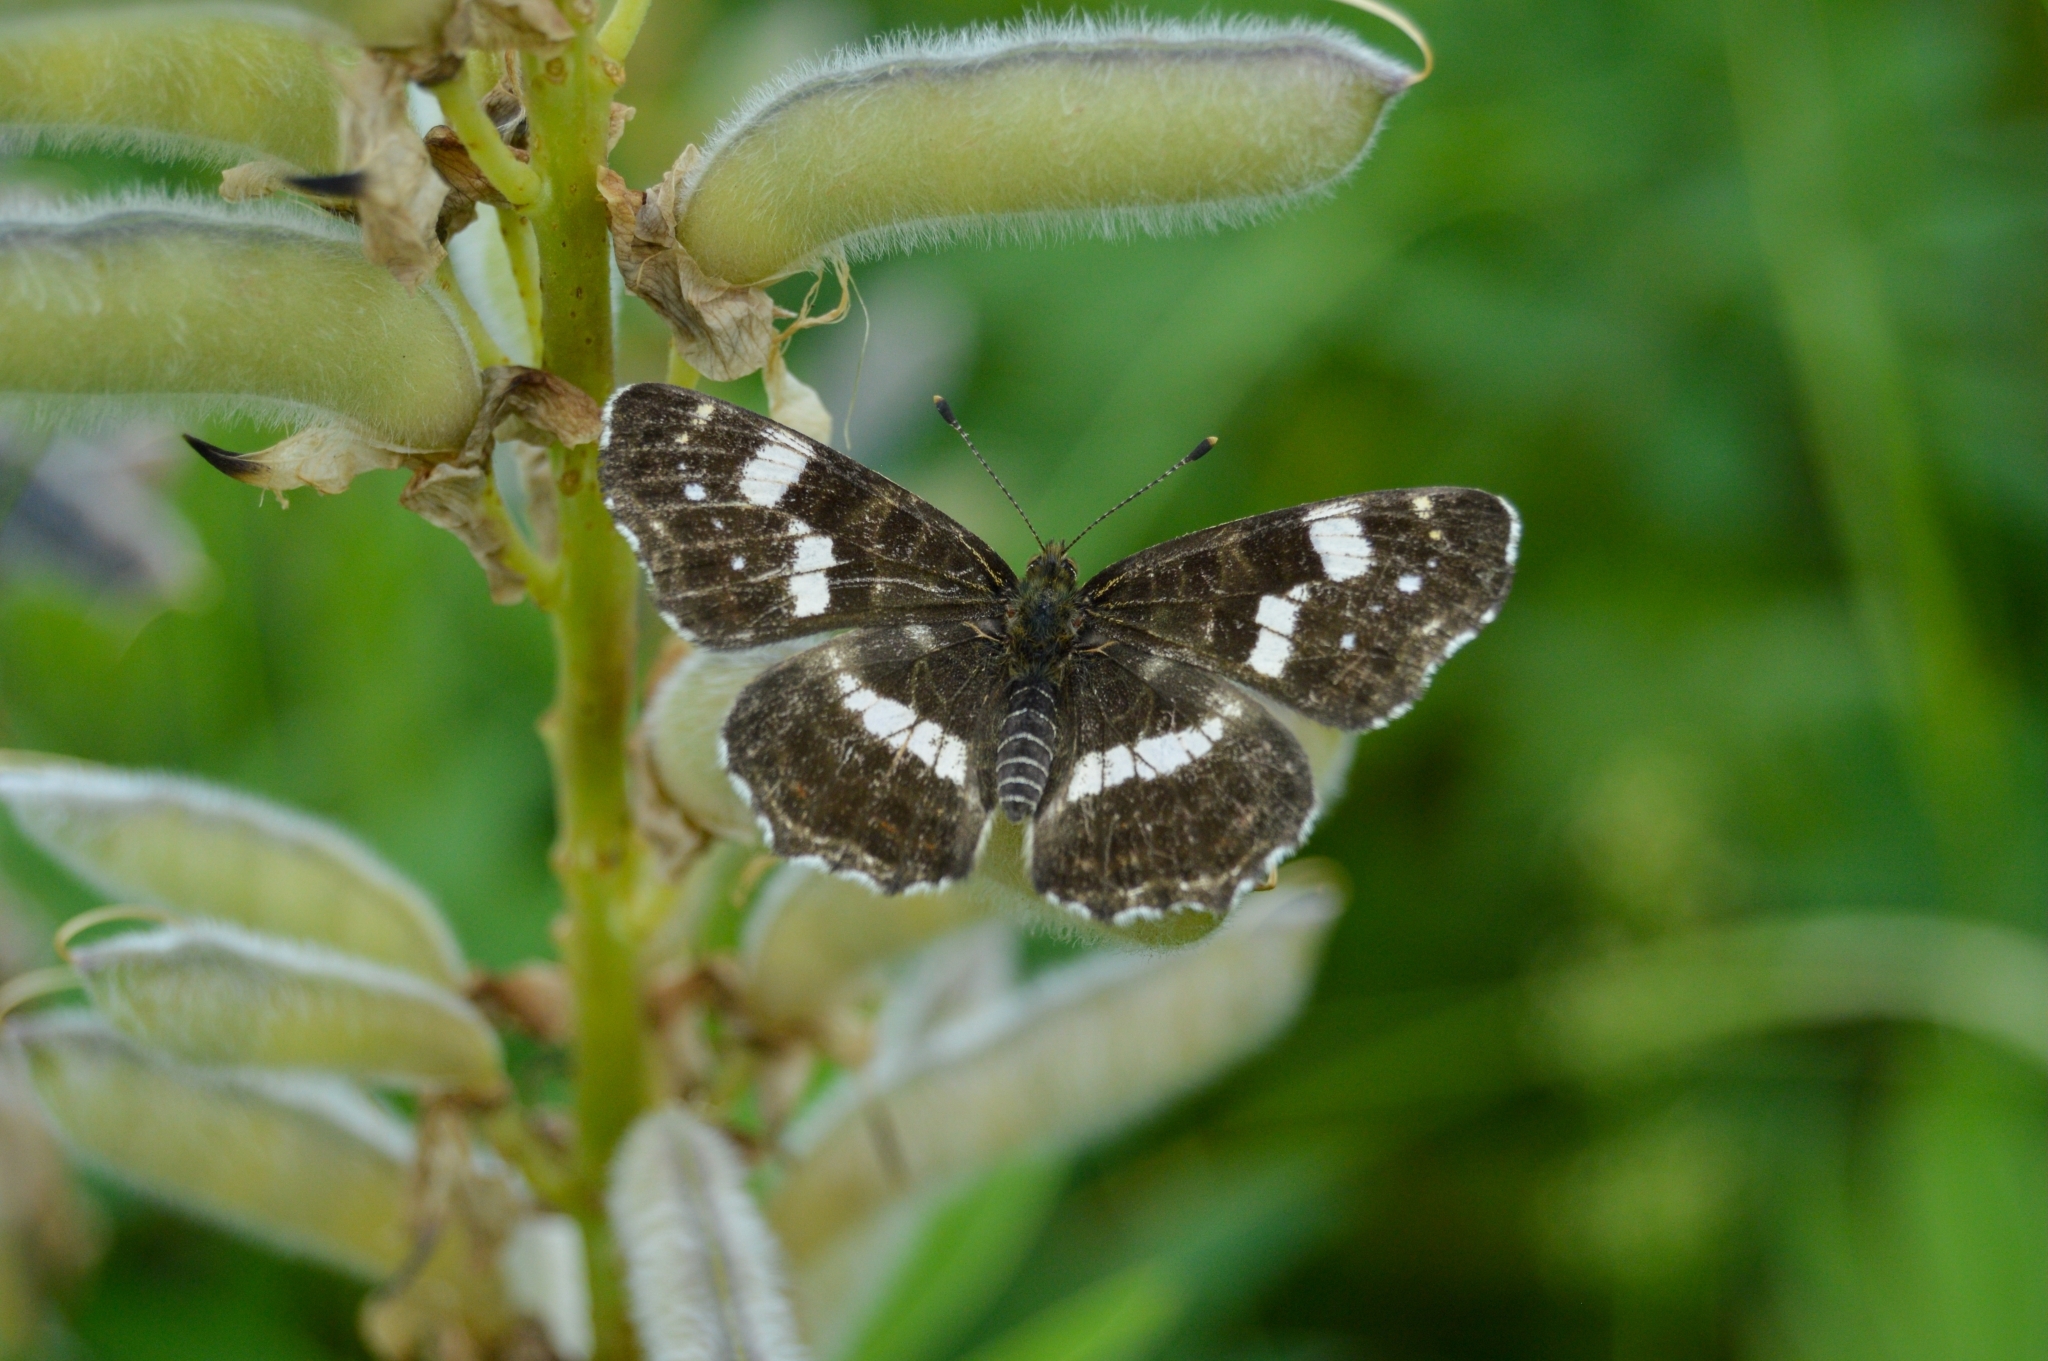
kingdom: Animalia
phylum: Arthropoda
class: Insecta
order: Lepidoptera
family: Nymphalidae
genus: Araschnia
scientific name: Araschnia levana
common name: Map butterfly
